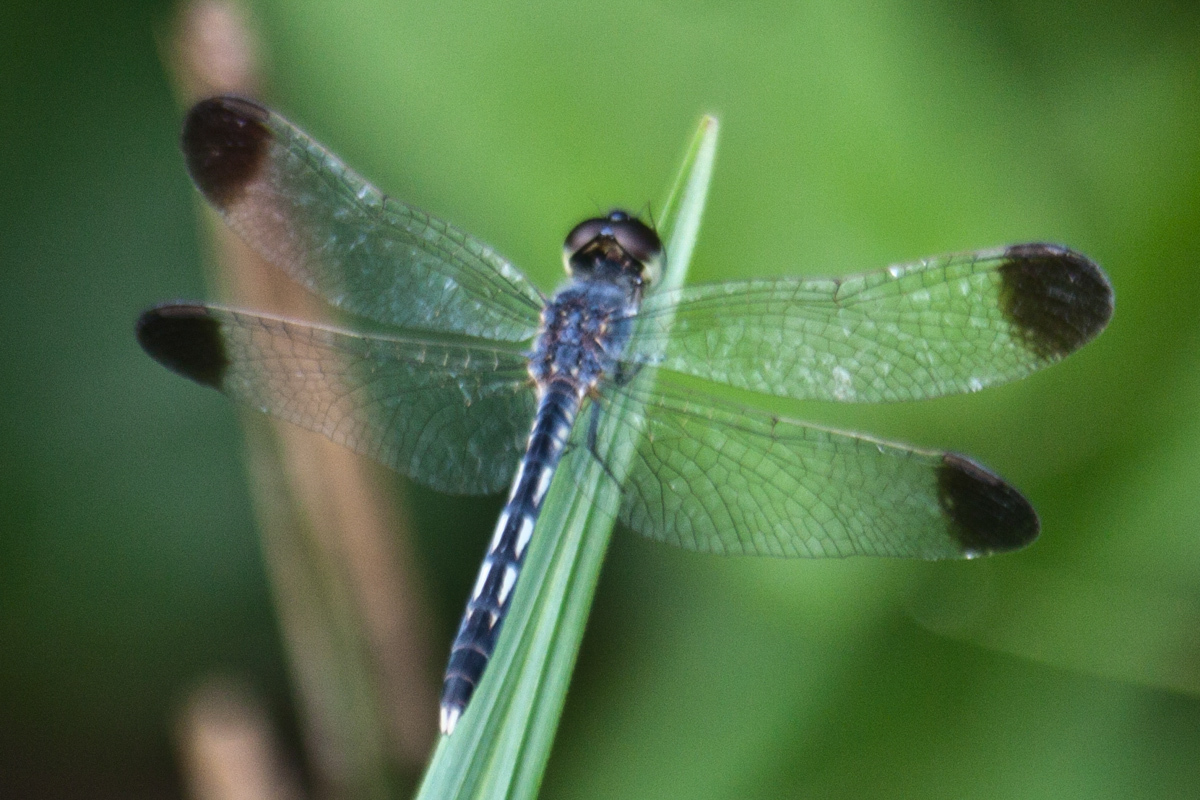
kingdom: Animalia
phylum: Arthropoda
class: Insecta
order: Odonata
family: Libellulidae
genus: Diplacodes
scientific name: Diplacodes nebulosa
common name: Black-tipped percher
